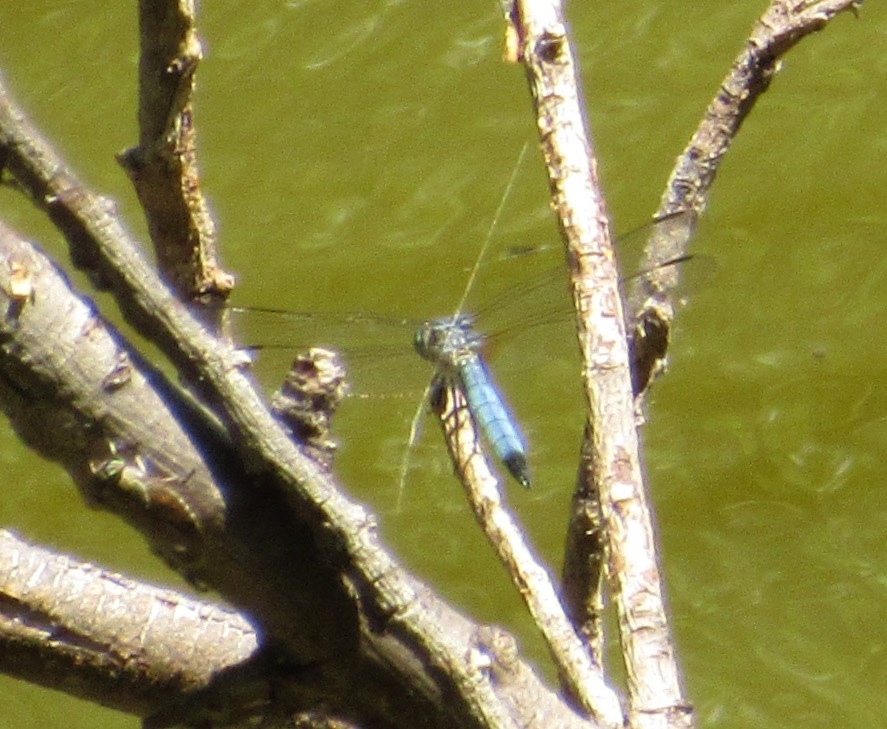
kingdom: Animalia
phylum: Arthropoda
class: Insecta
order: Odonata
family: Libellulidae
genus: Pachydiplax
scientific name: Pachydiplax longipennis
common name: Blue dasher
